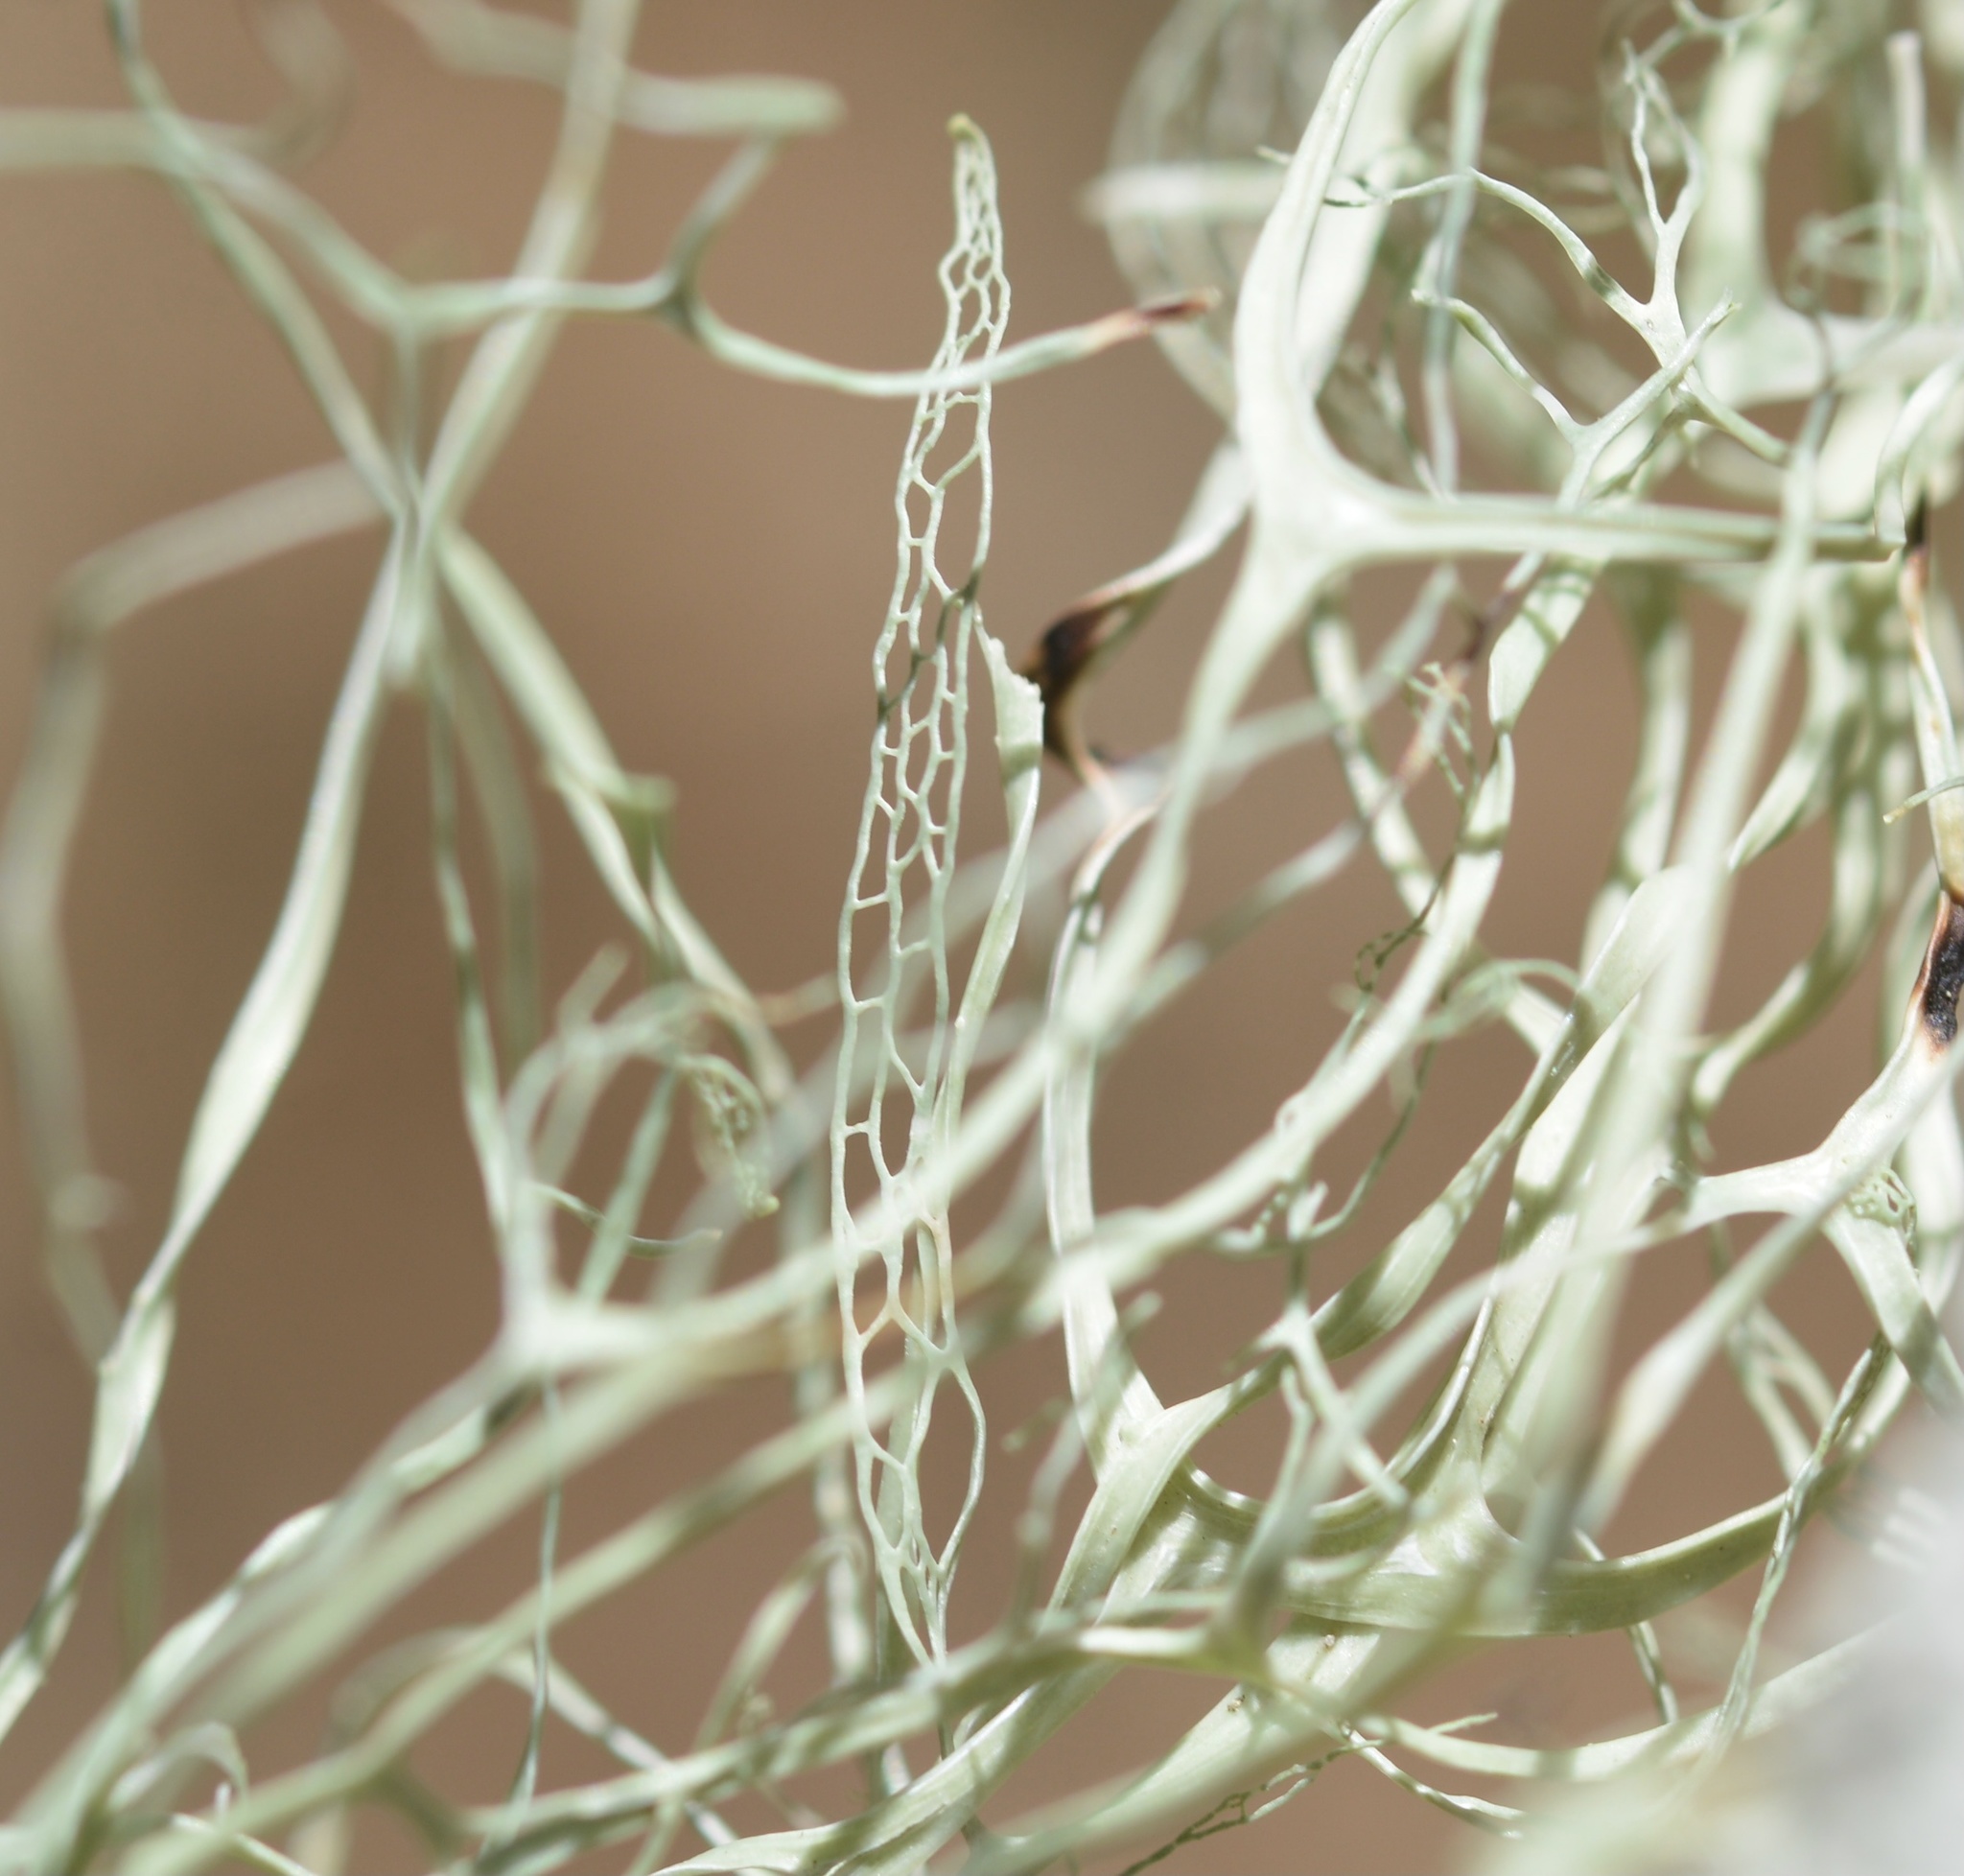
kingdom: Fungi
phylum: Ascomycota
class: Lecanoromycetes
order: Lecanorales
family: Ramalinaceae
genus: Ramalina
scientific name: Ramalina menziesii
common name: Lace lichen
